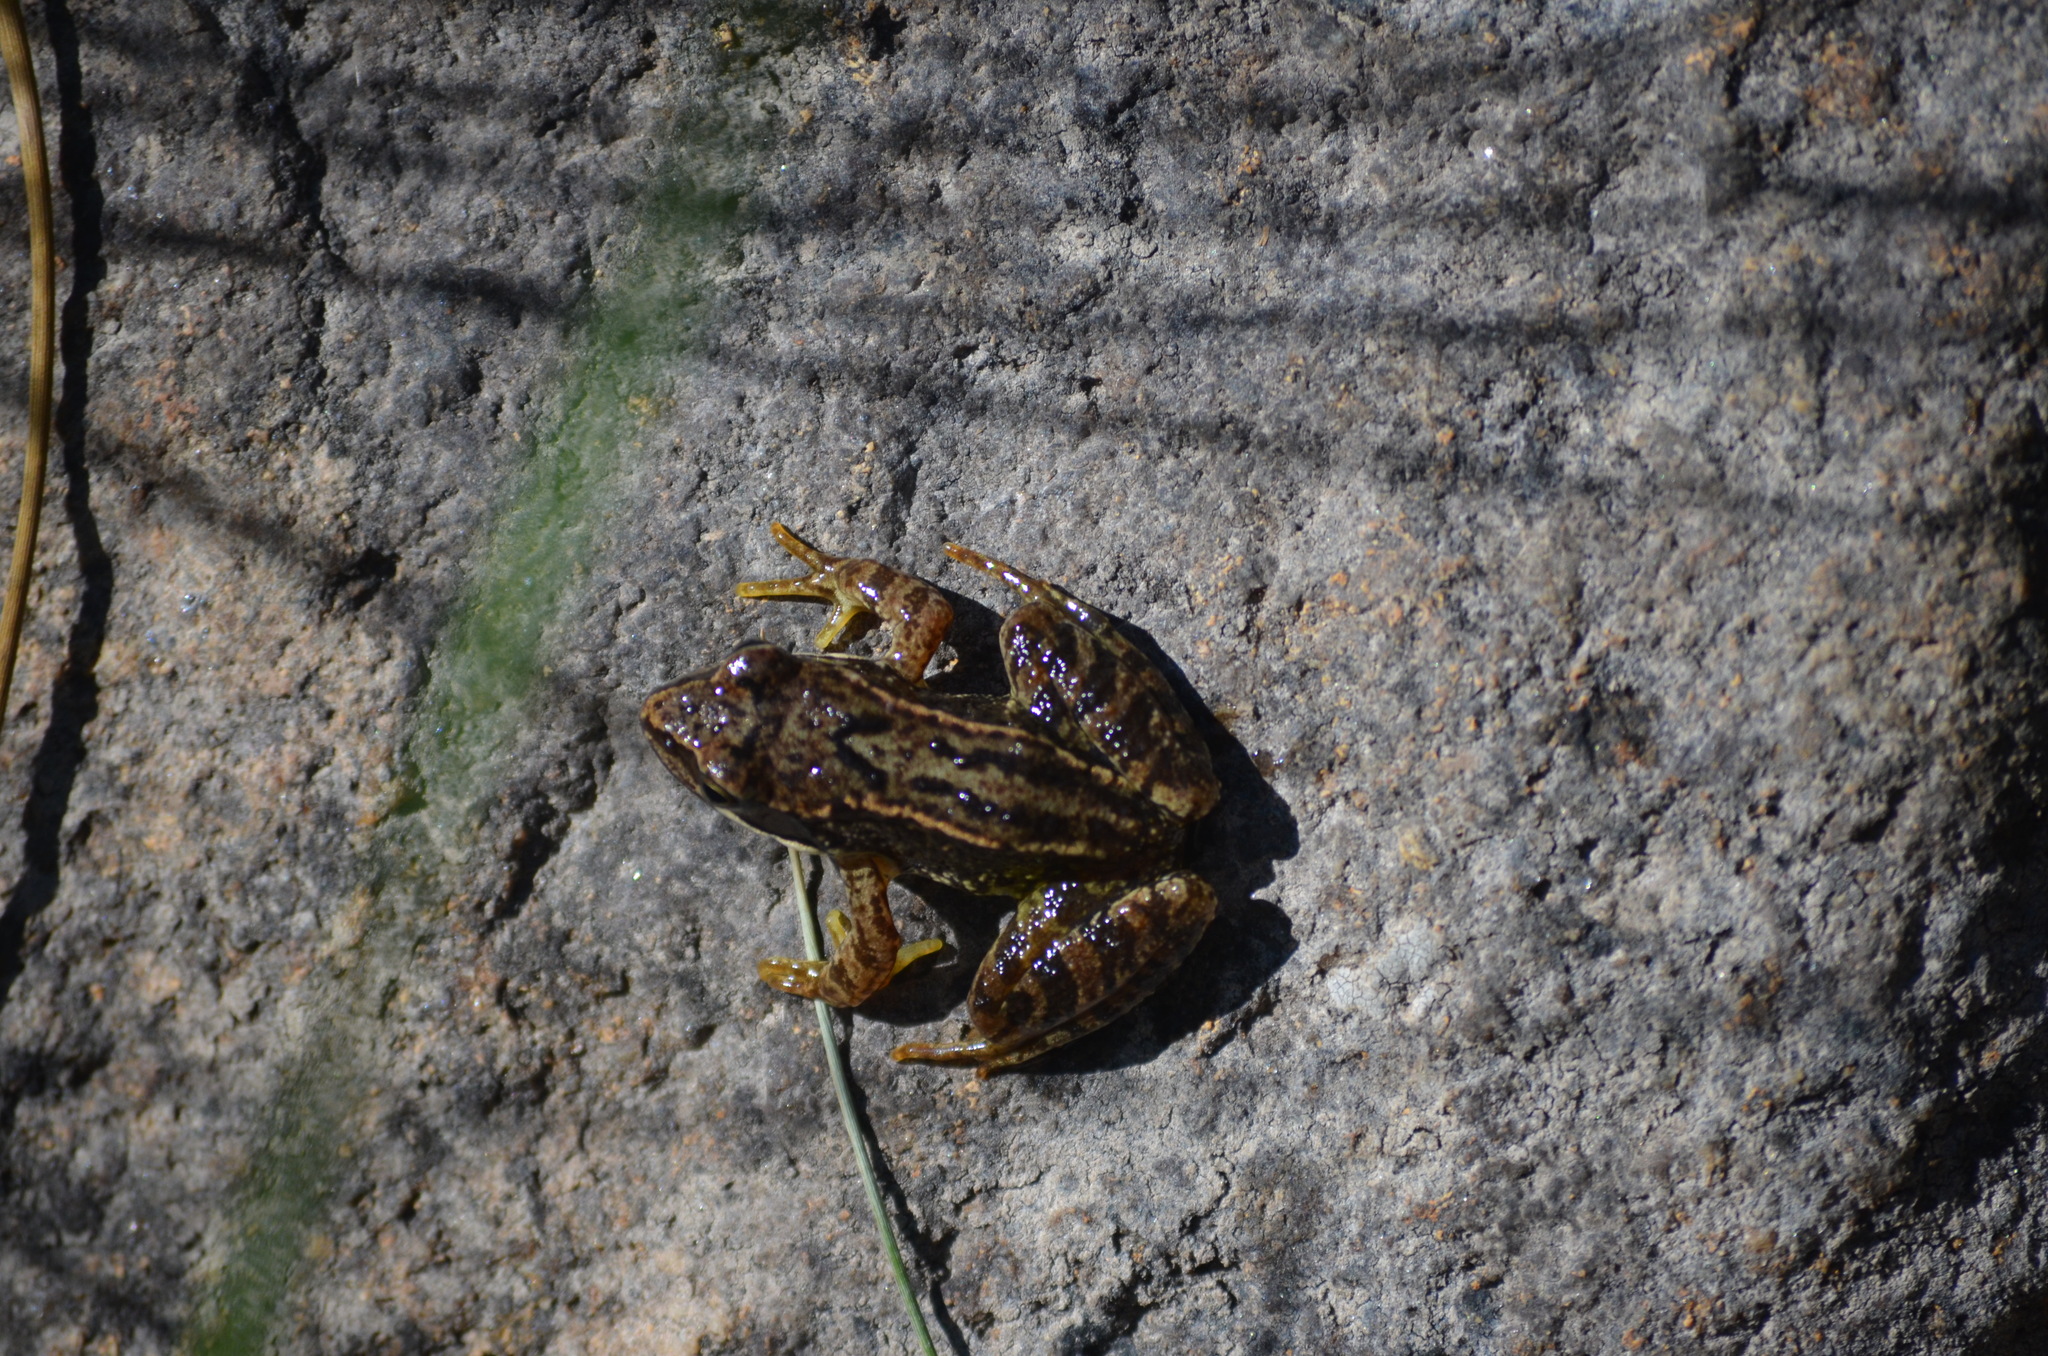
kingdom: Animalia
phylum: Chordata
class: Amphibia
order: Anura
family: Ranidae
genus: Rana
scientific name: Rana temporaria
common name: Common frog
